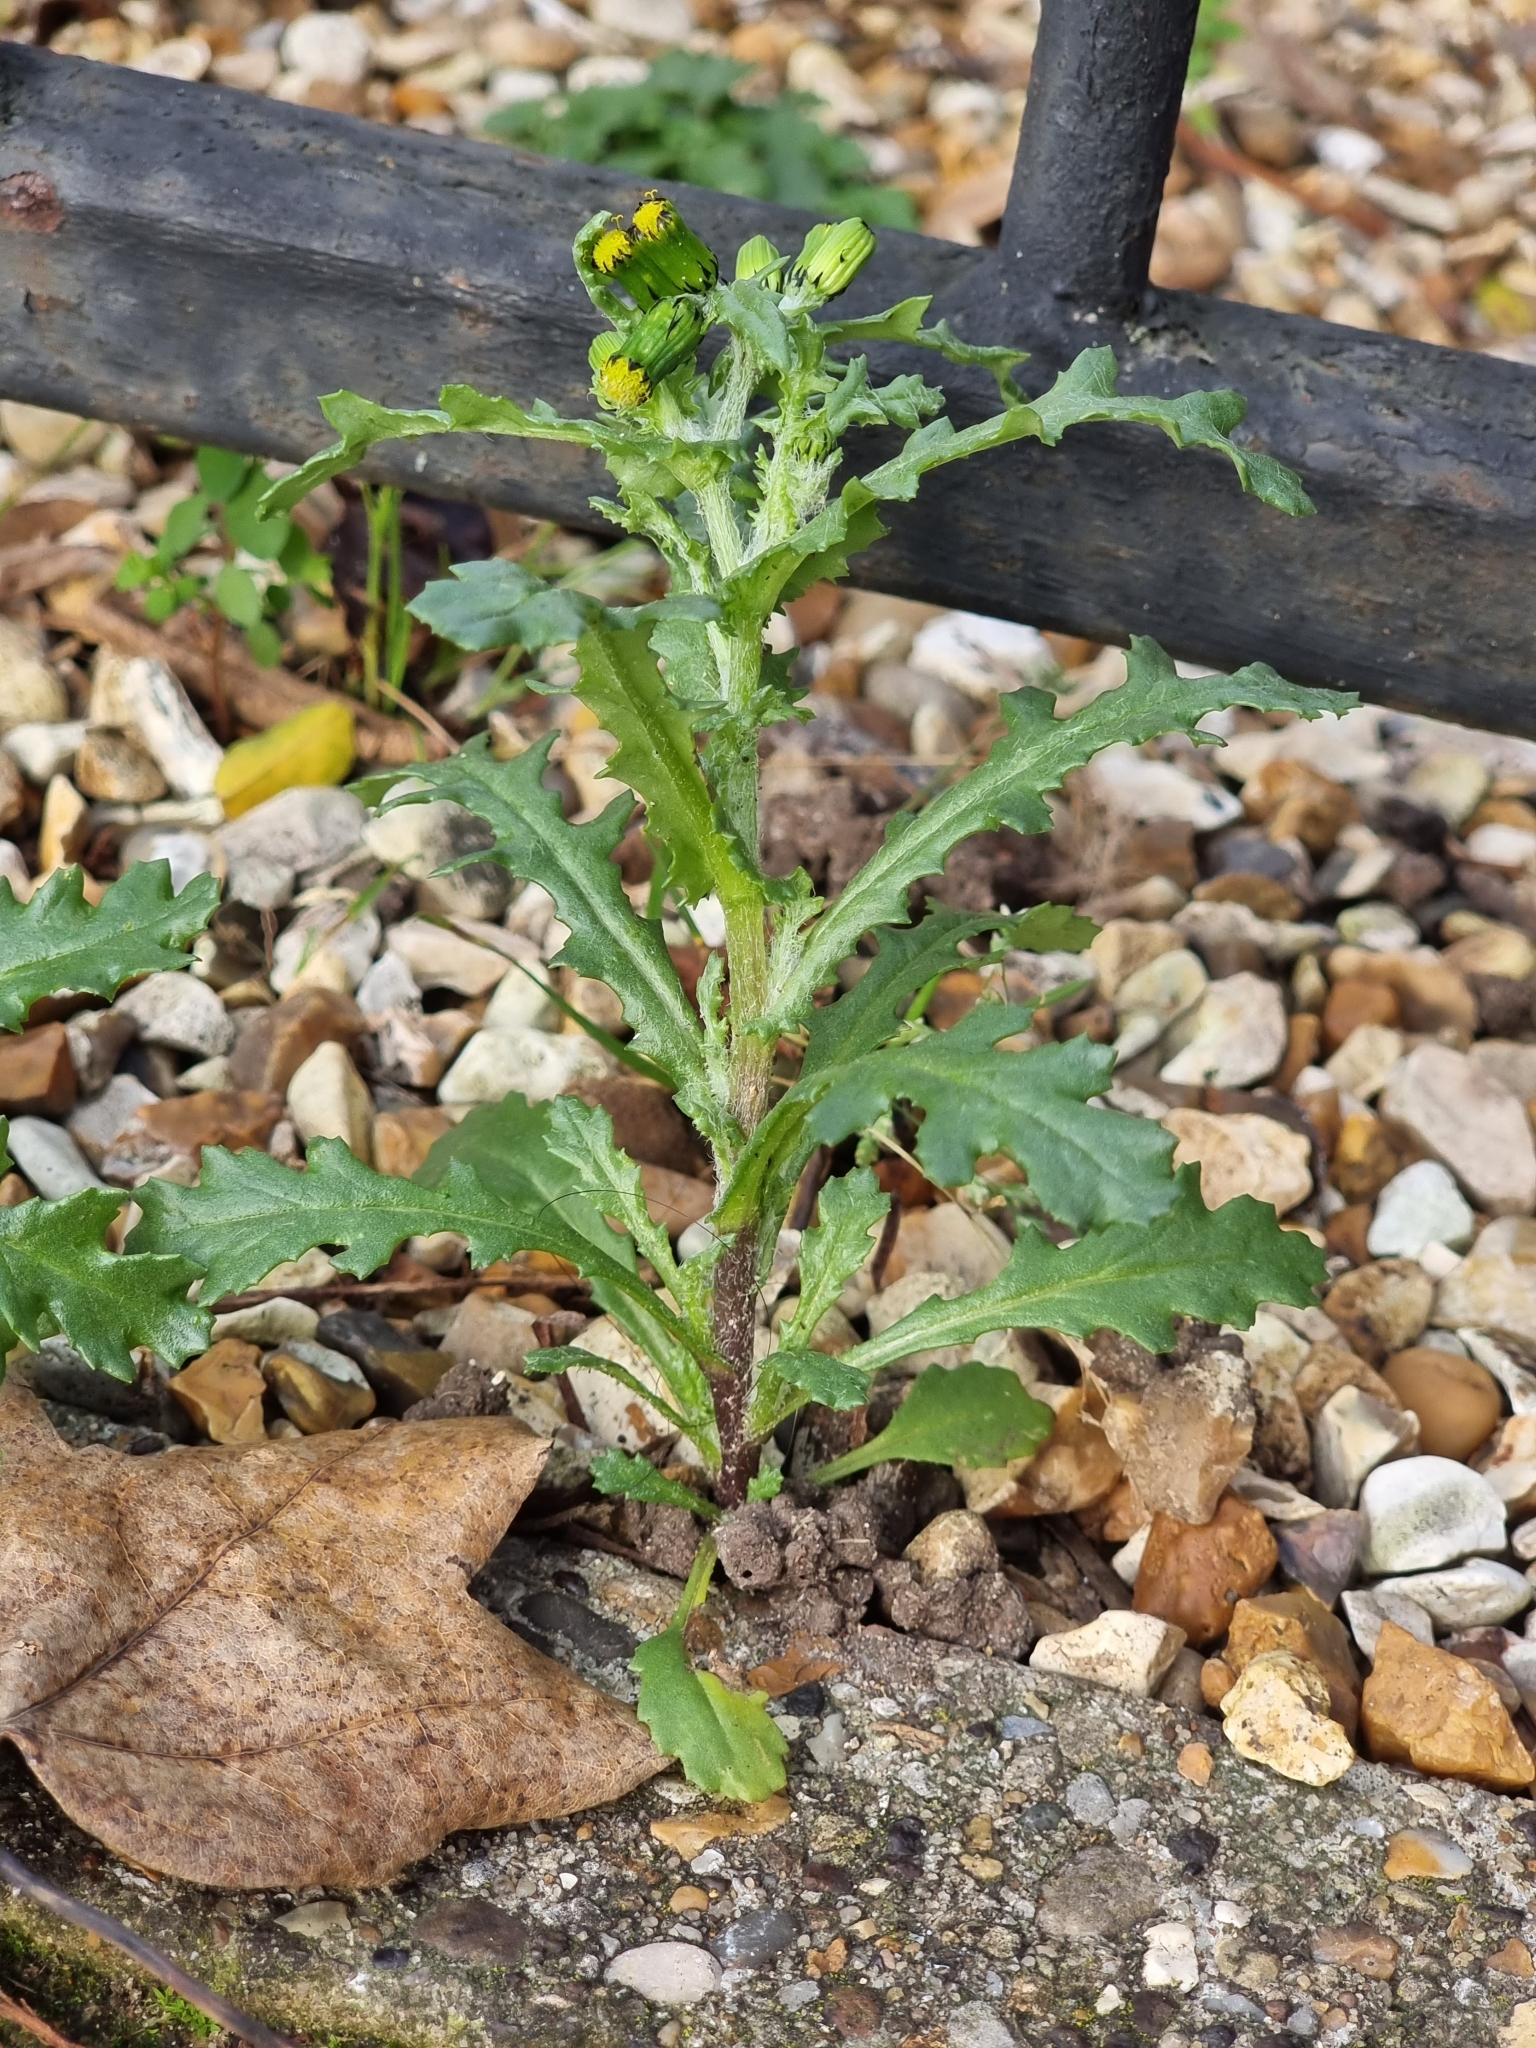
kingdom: Plantae
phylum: Tracheophyta
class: Magnoliopsida
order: Asterales
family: Asteraceae
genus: Senecio
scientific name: Senecio vulgaris
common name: Old-man-in-the-spring
